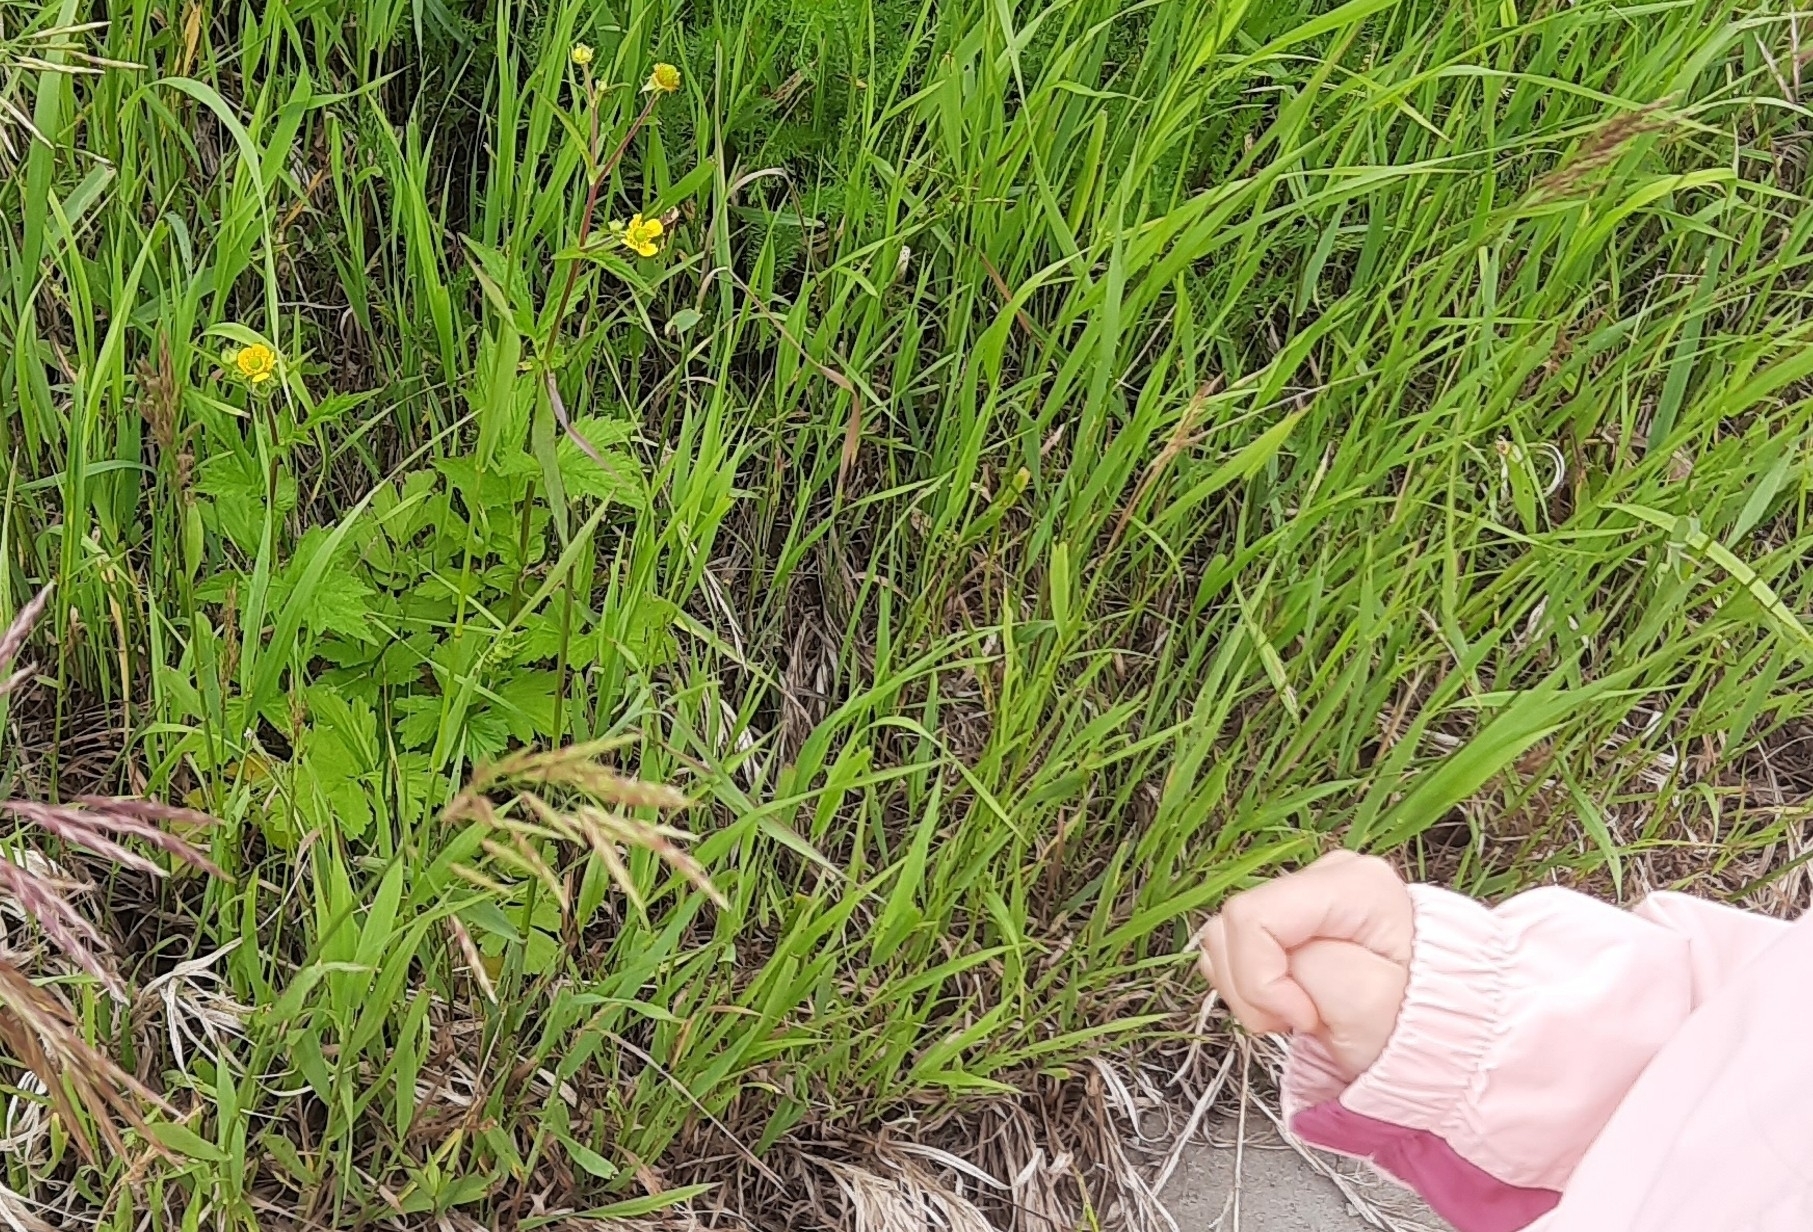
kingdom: Plantae
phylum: Tracheophyta
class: Magnoliopsida
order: Rosales
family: Rosaceae
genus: Geum
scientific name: Geum aleppicum
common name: Yellow avens
